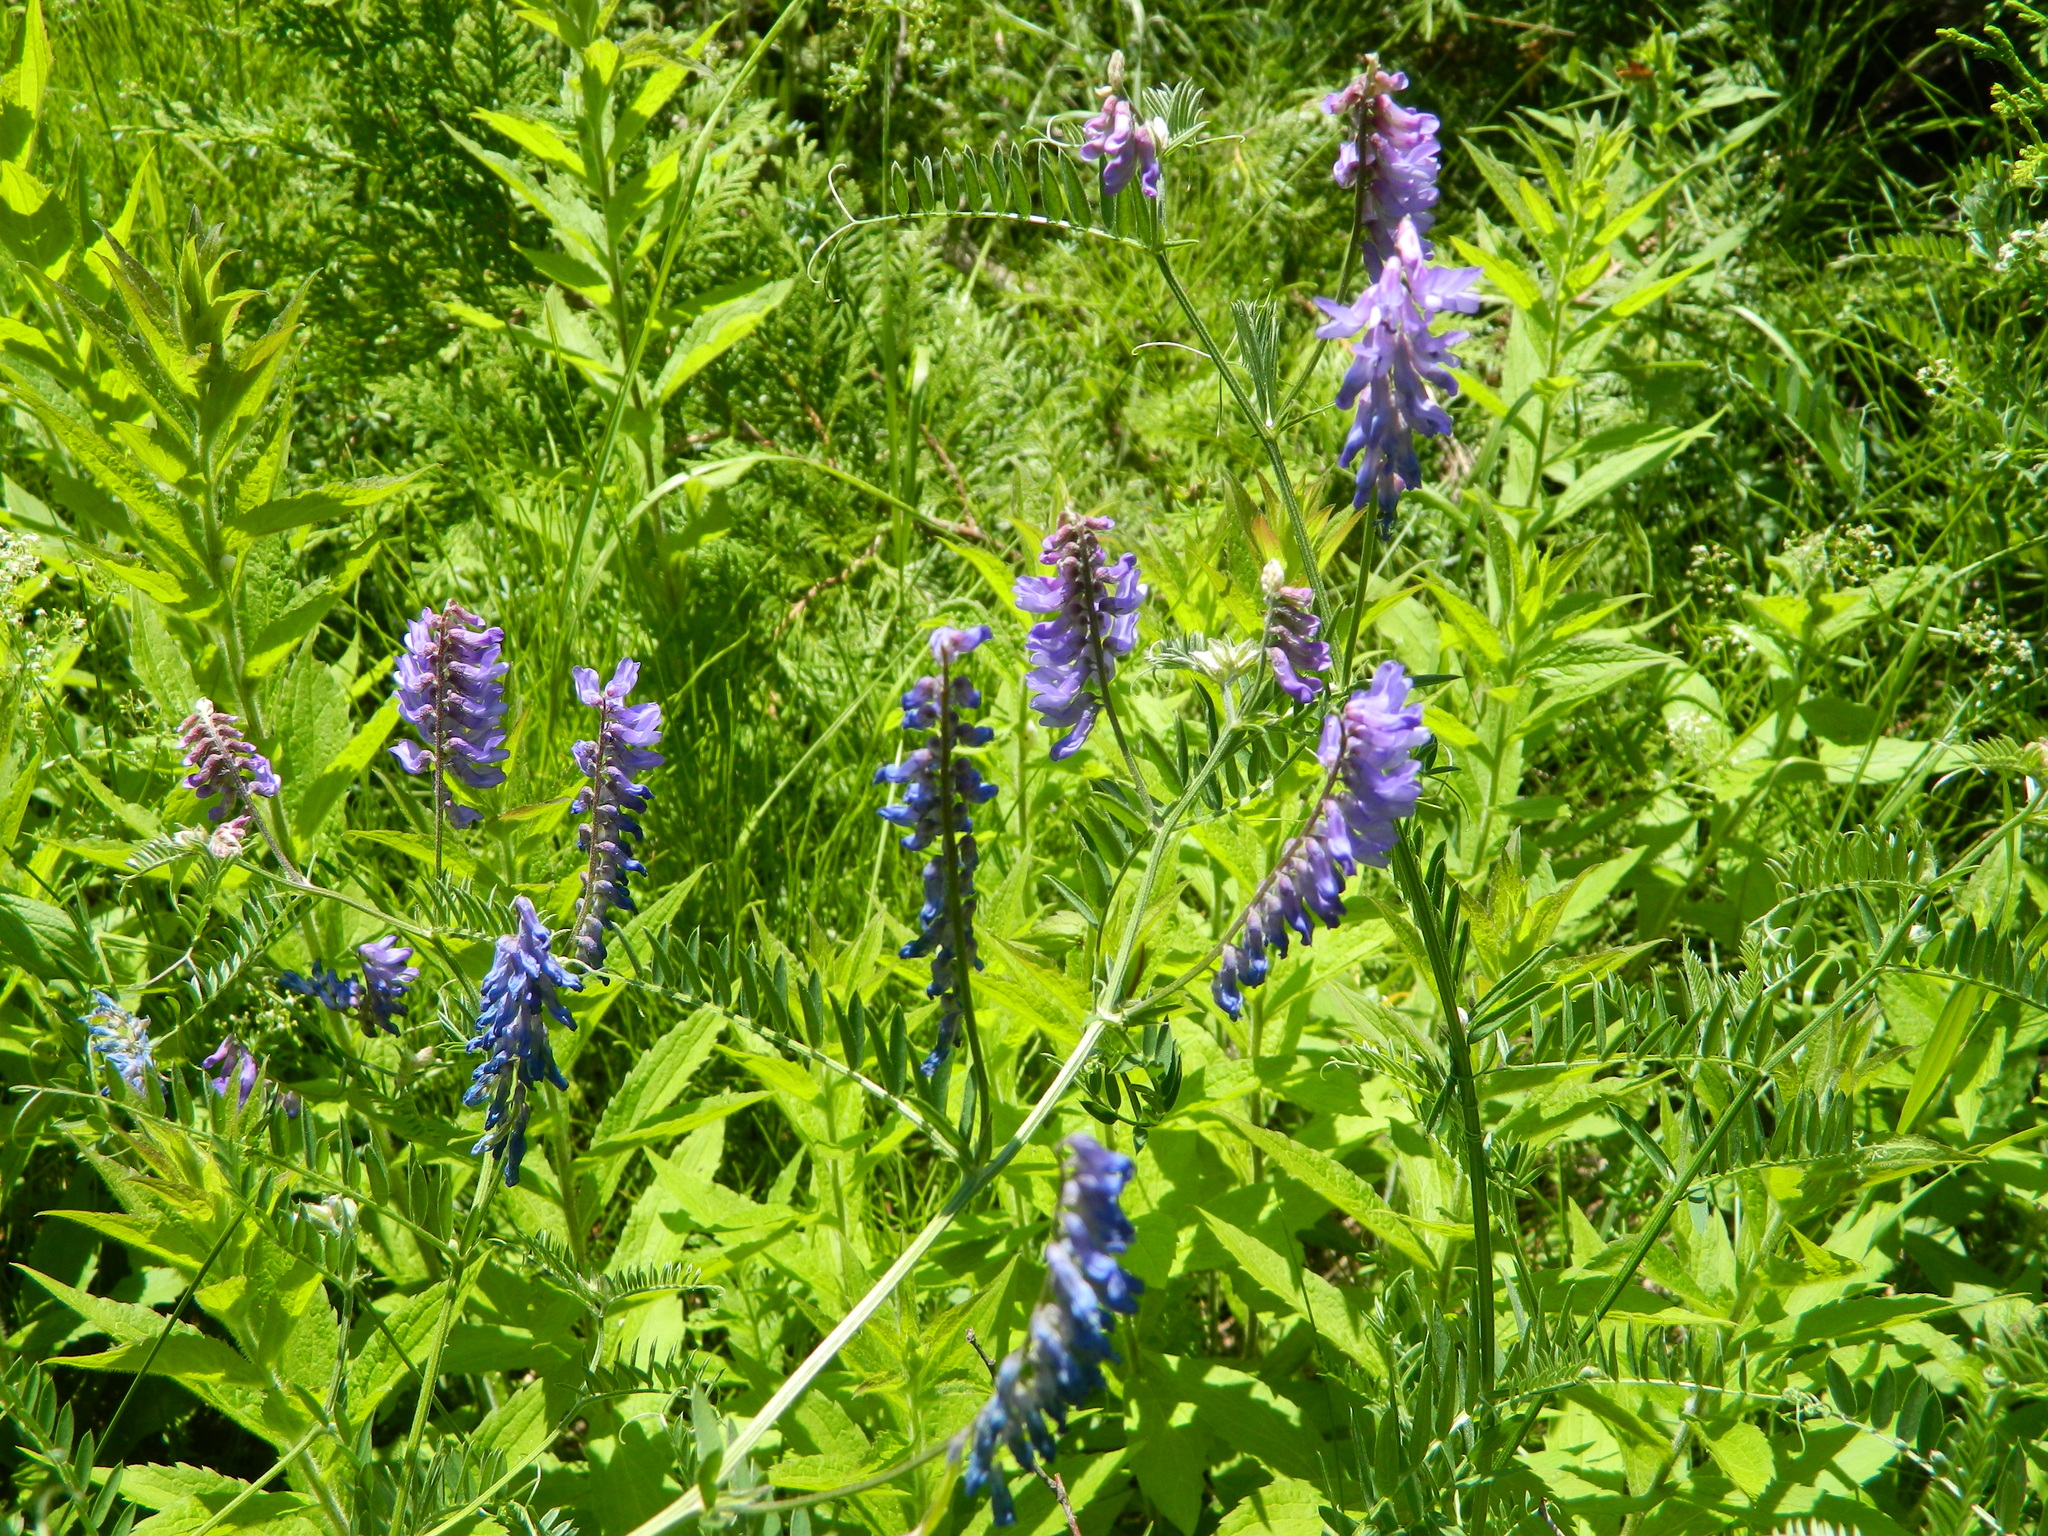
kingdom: Plantae
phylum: Tracheophyta
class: Magnoliopsida
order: Fabales
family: Fabaceae
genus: Vicia
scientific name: Vicia cracca
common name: Bird vetch
